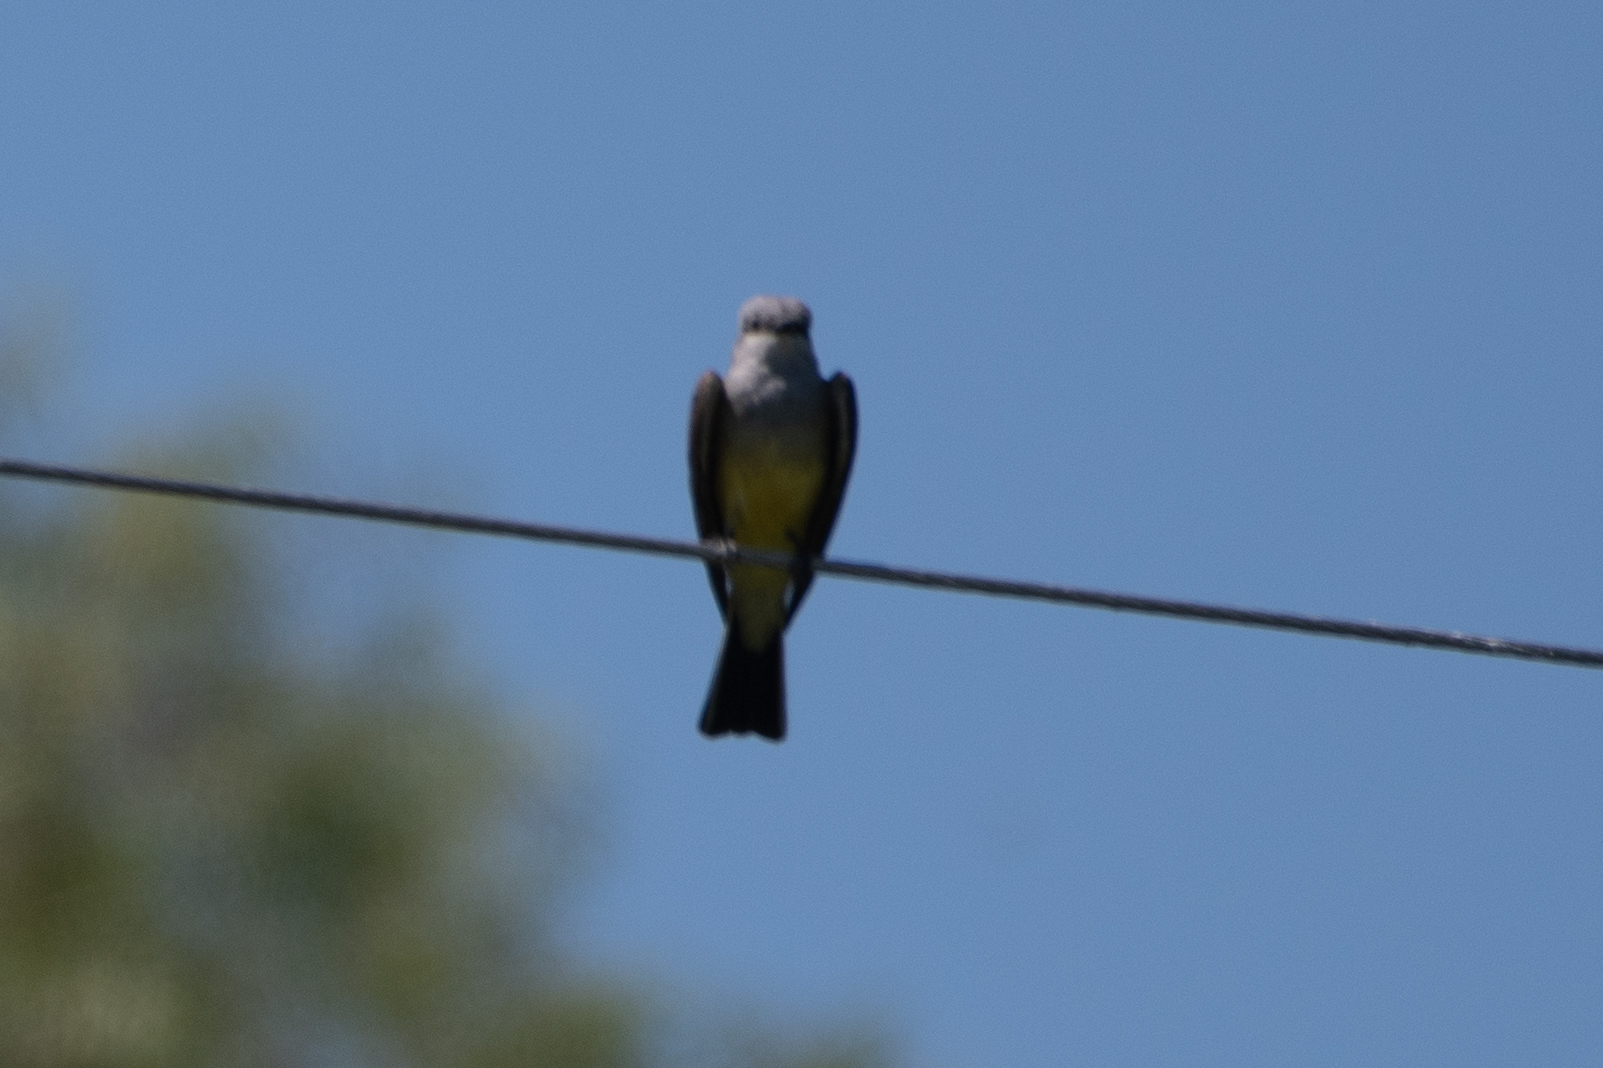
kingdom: Animalia
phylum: Chordata
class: Aves
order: Passeriformes
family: Tyrannidae
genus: Tyrannus
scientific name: Tyrannus verticalis
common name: Western kingbird
